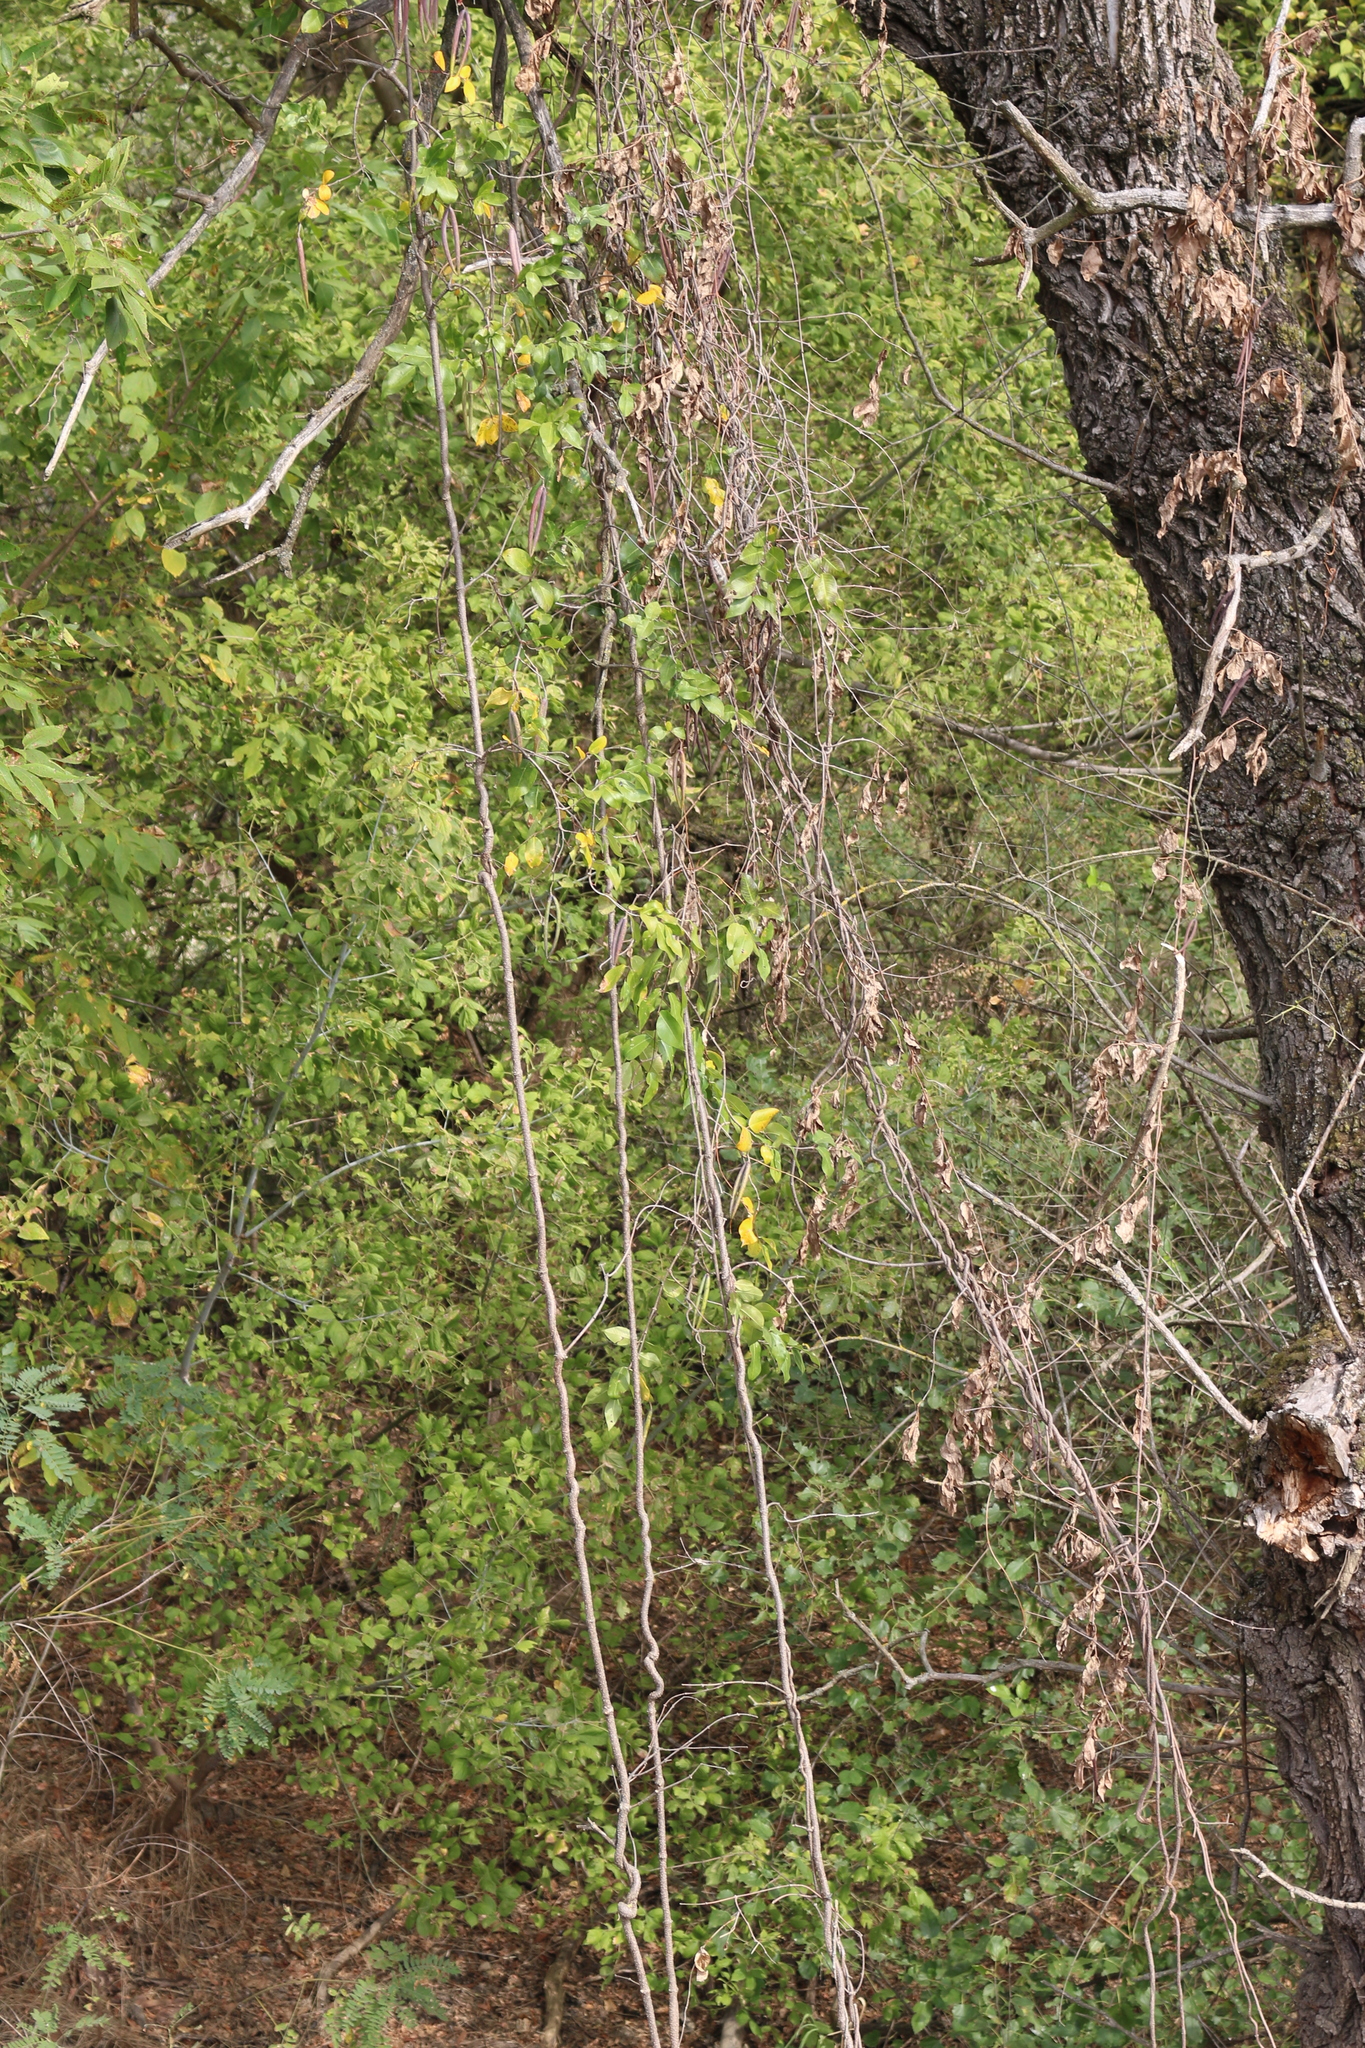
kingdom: Plantae
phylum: Tracheophyta
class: Magnoliopsida
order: Gentianales
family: Apocynaceae
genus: Periploca
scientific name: Periploca graeca
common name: Silkvine
